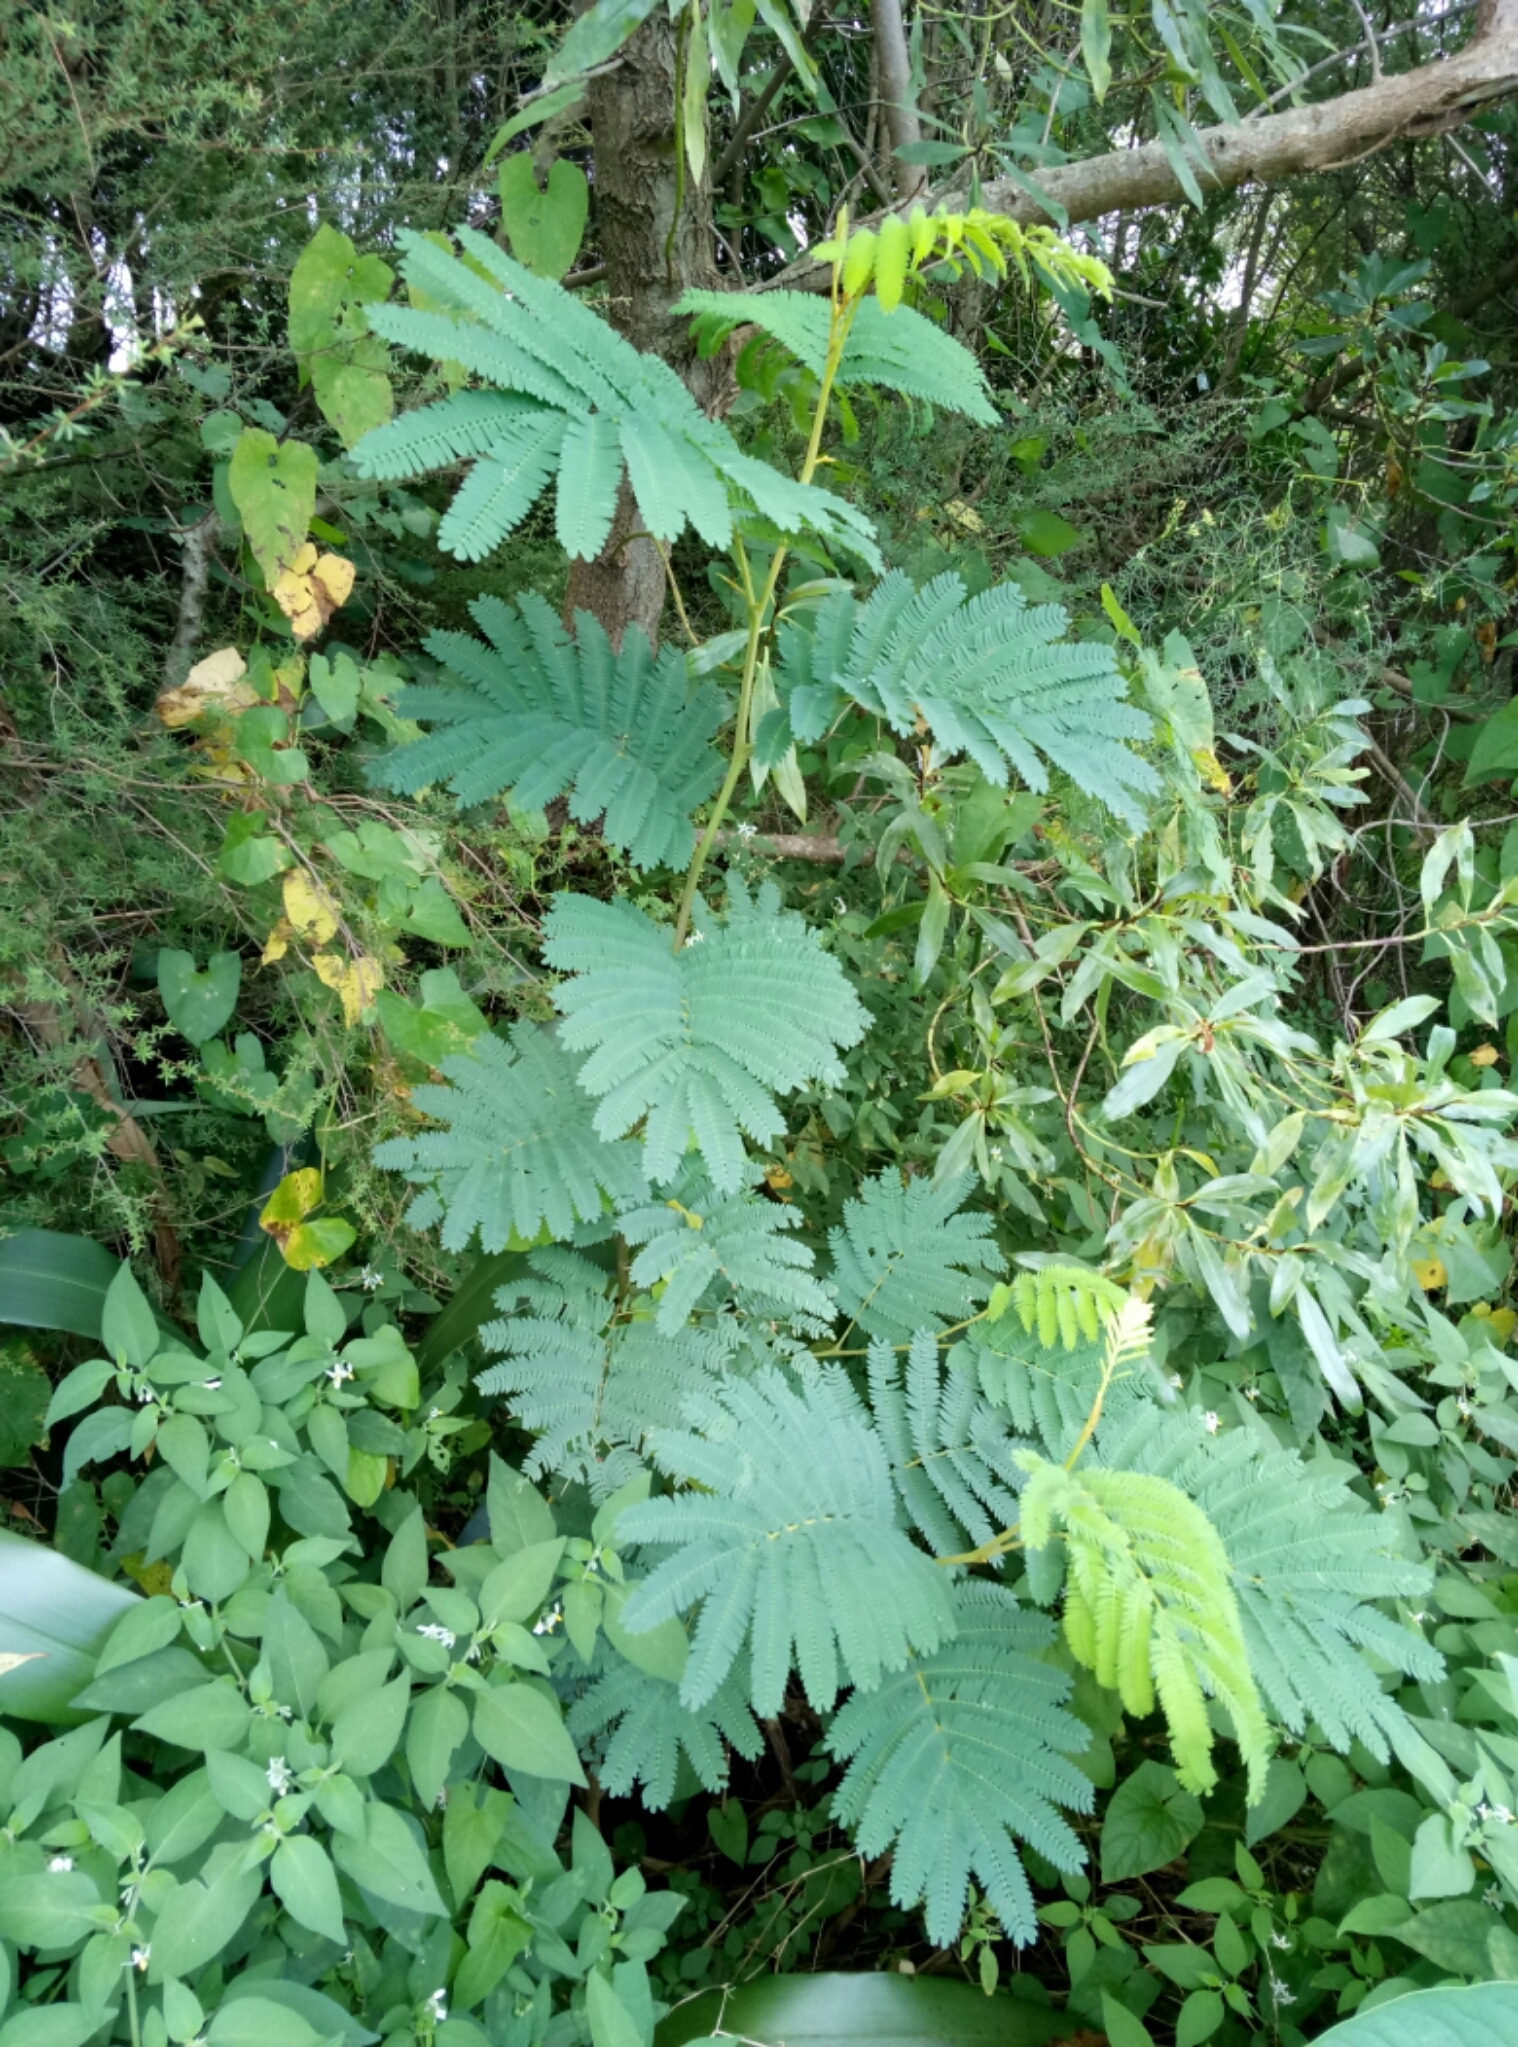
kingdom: Plantae
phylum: Tracheophyta
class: Magnoliopsida
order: Fabales
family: Fabaceae
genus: Paraserianthes
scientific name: Paraserianthes lophantha
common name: Plume albizia
